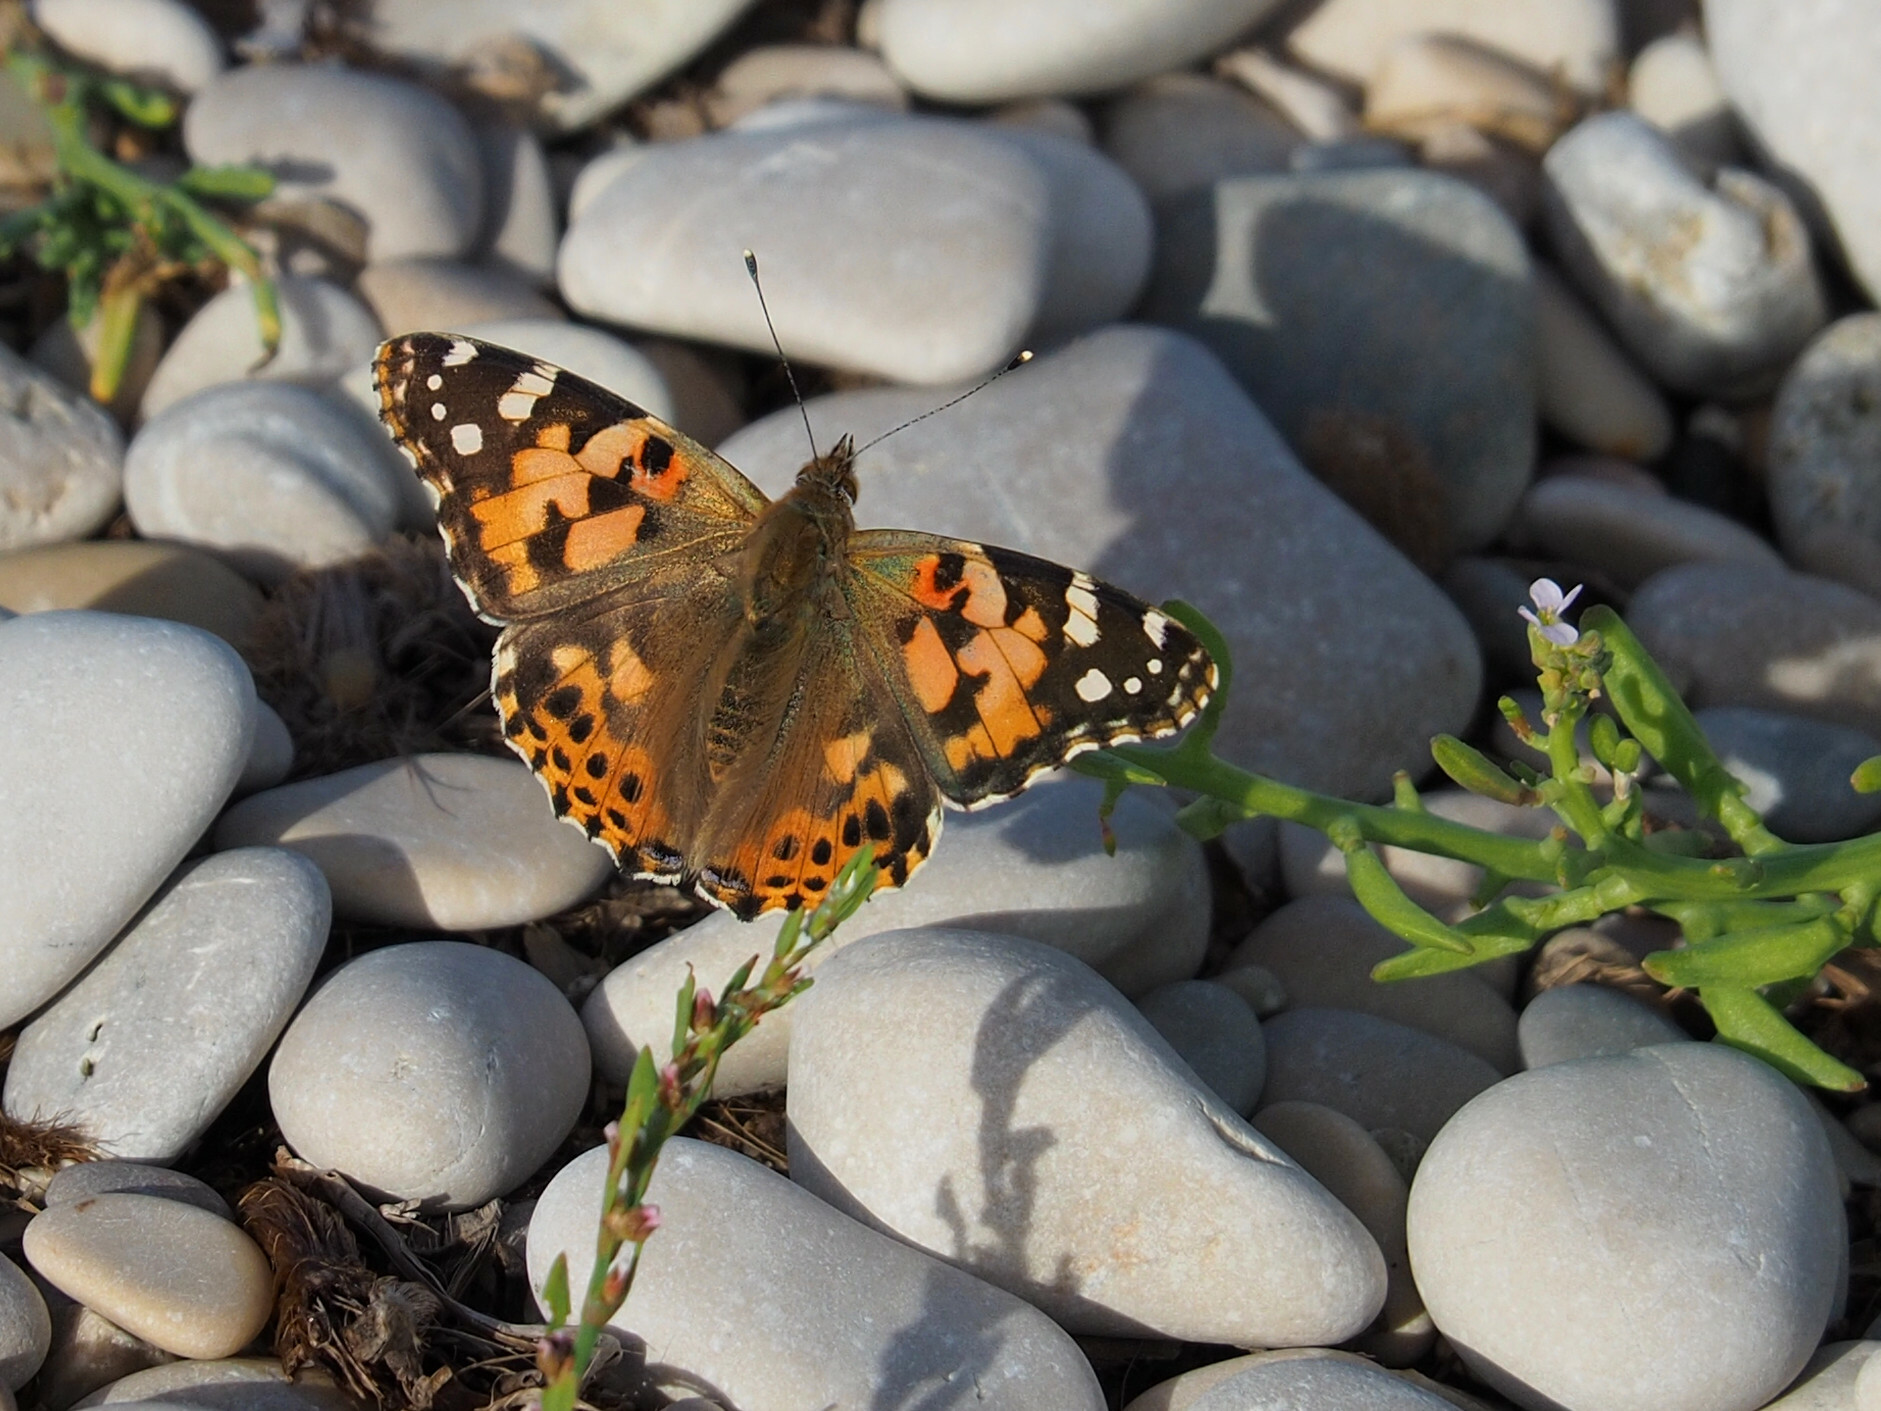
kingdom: Animalia
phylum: Arthropoda
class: Insecta
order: Lepidoptera
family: Nymphalidae
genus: Vanessa
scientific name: Vanessa cardui
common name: Painted lady
